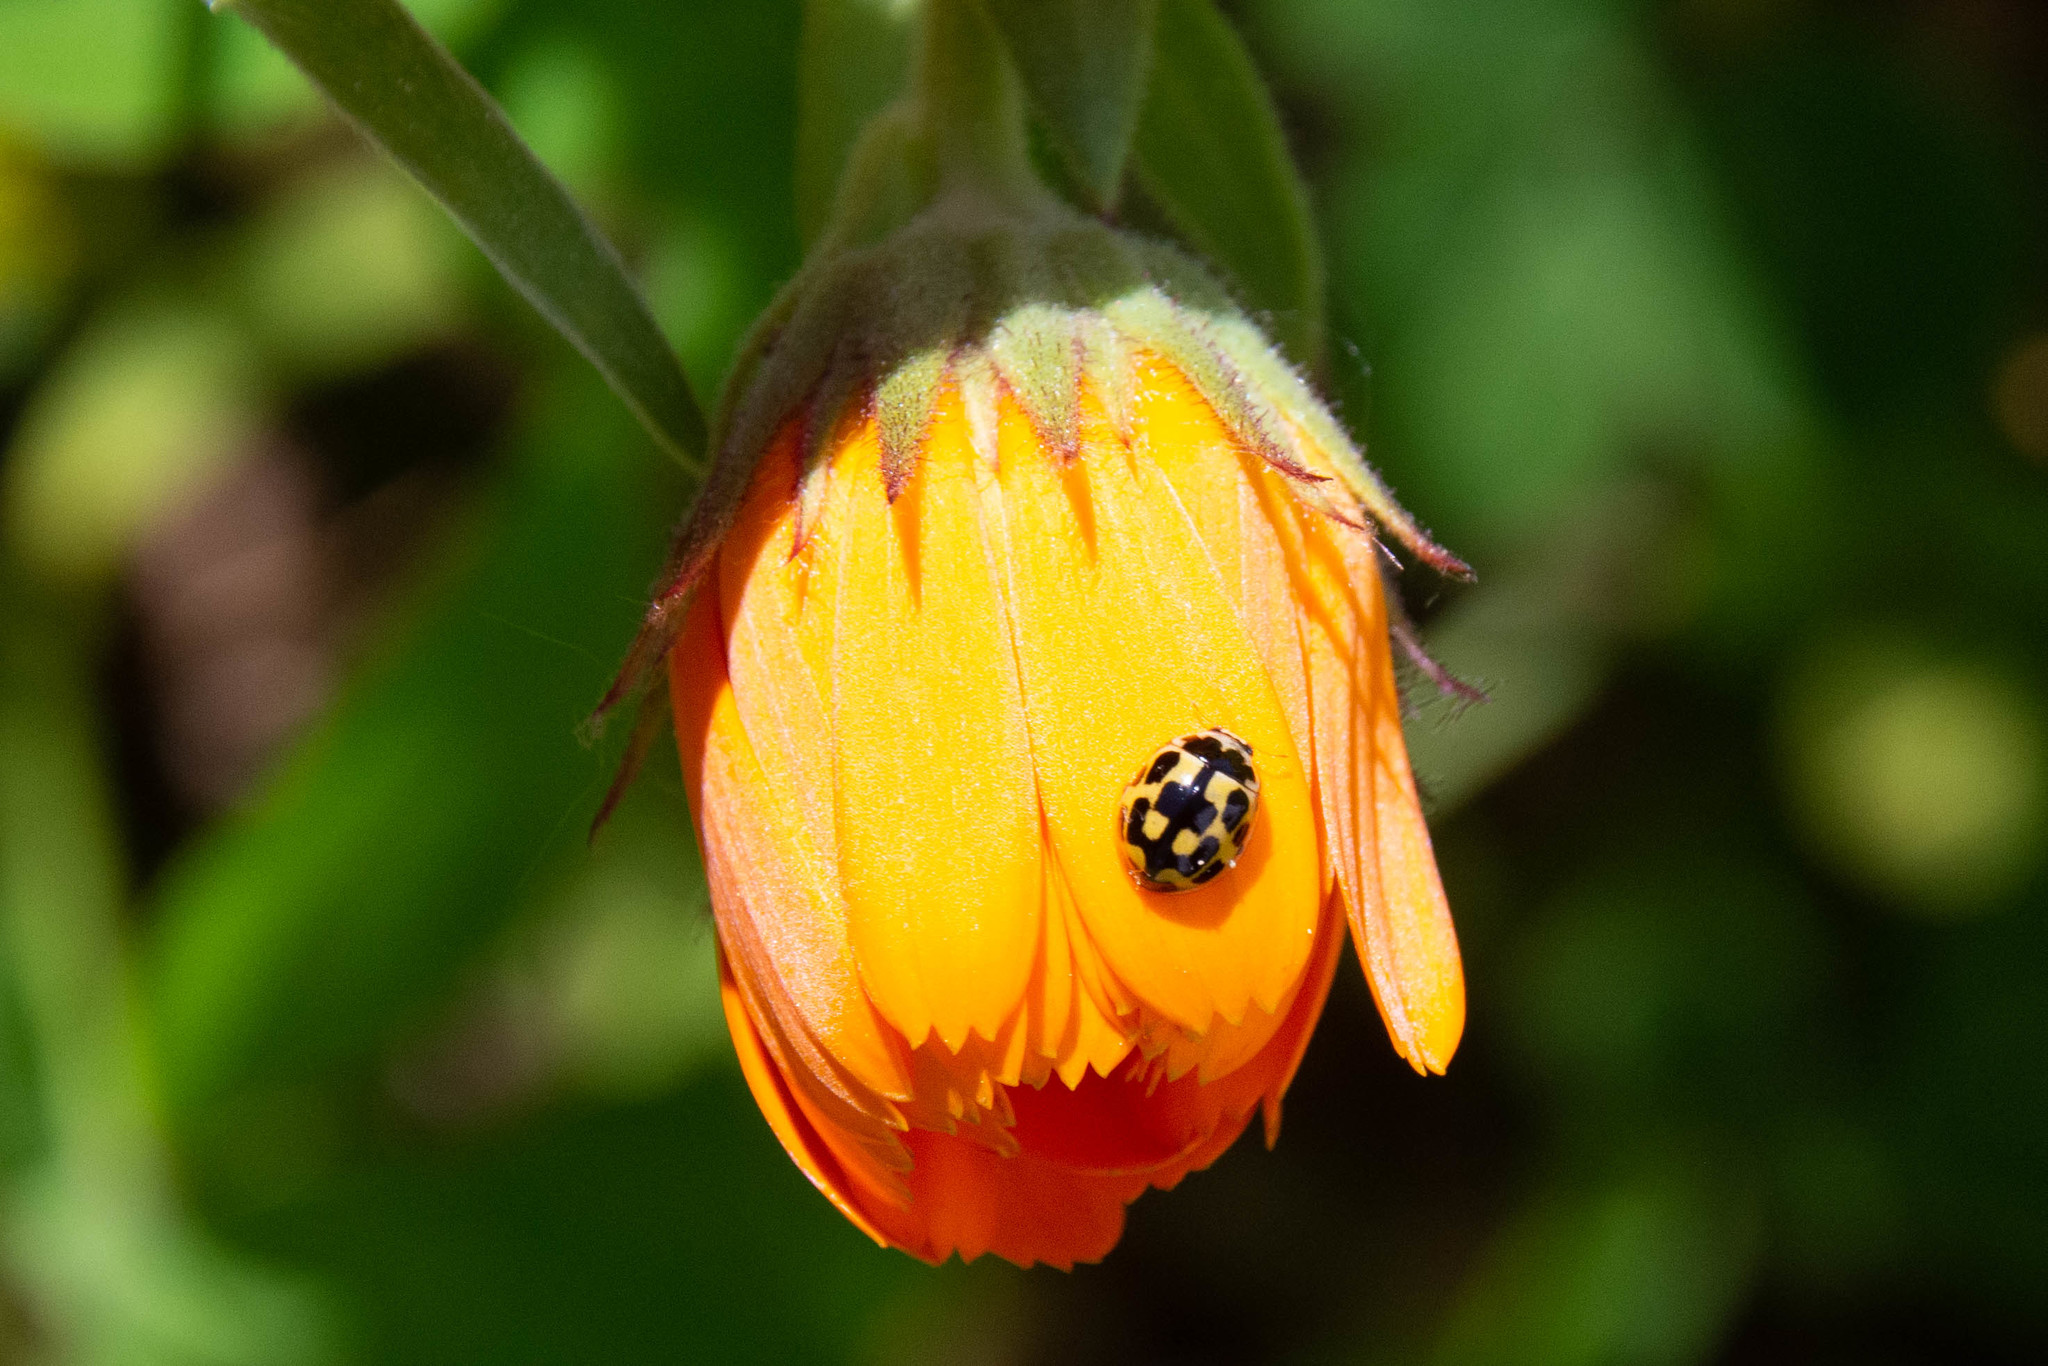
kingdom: Animalia
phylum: Arthropoda
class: Insecta
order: Coleoptera
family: Coccinellidae
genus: Propylaea
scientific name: Propylaea quatuordecimpunctata
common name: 14-spotted ladybird beetle
